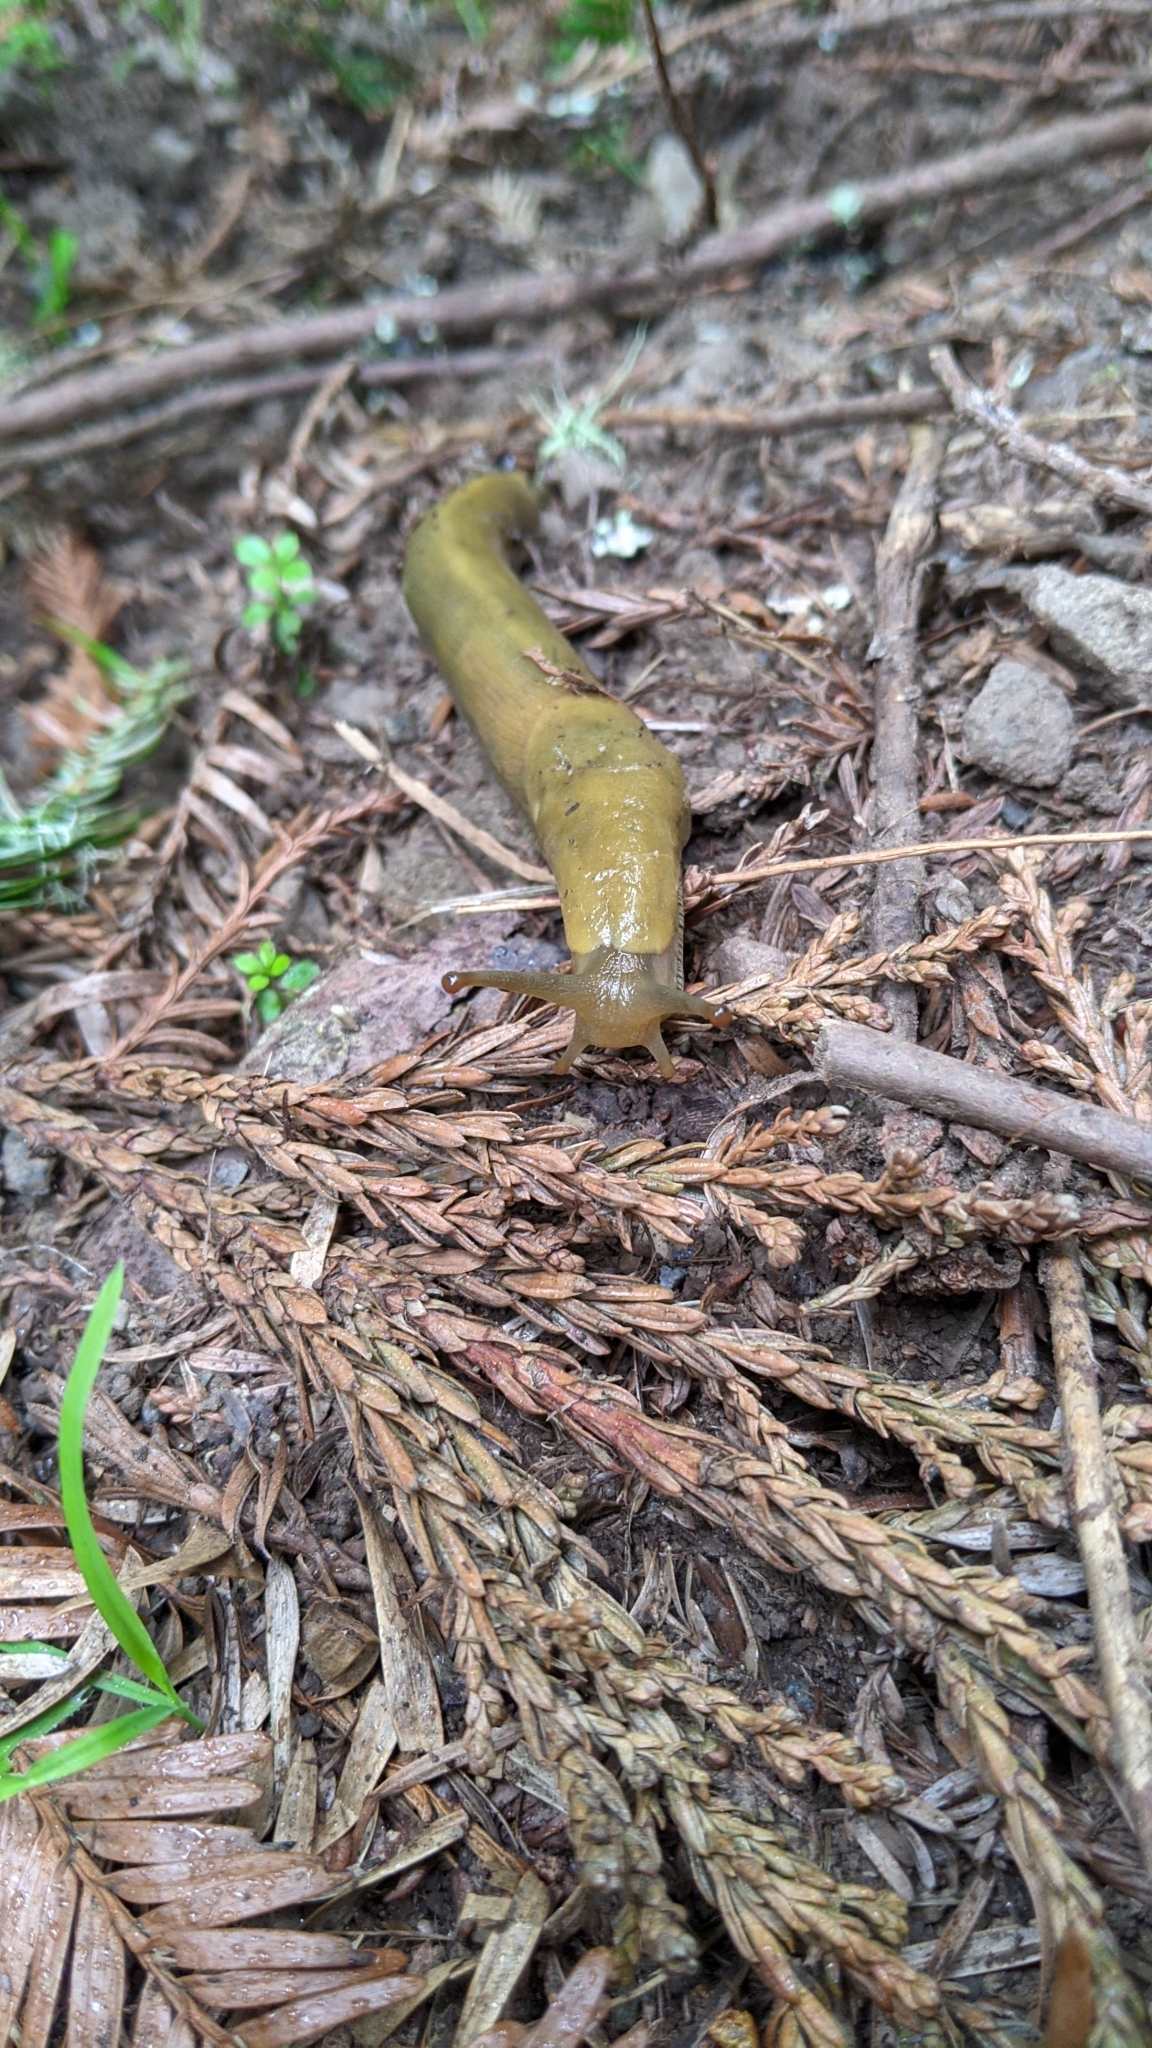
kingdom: Animalia
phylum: Mollusca
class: Gastropoda
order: Stylommatophora
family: Ariolimacidae
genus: Ariolimax
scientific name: Ariolimax buttoni
